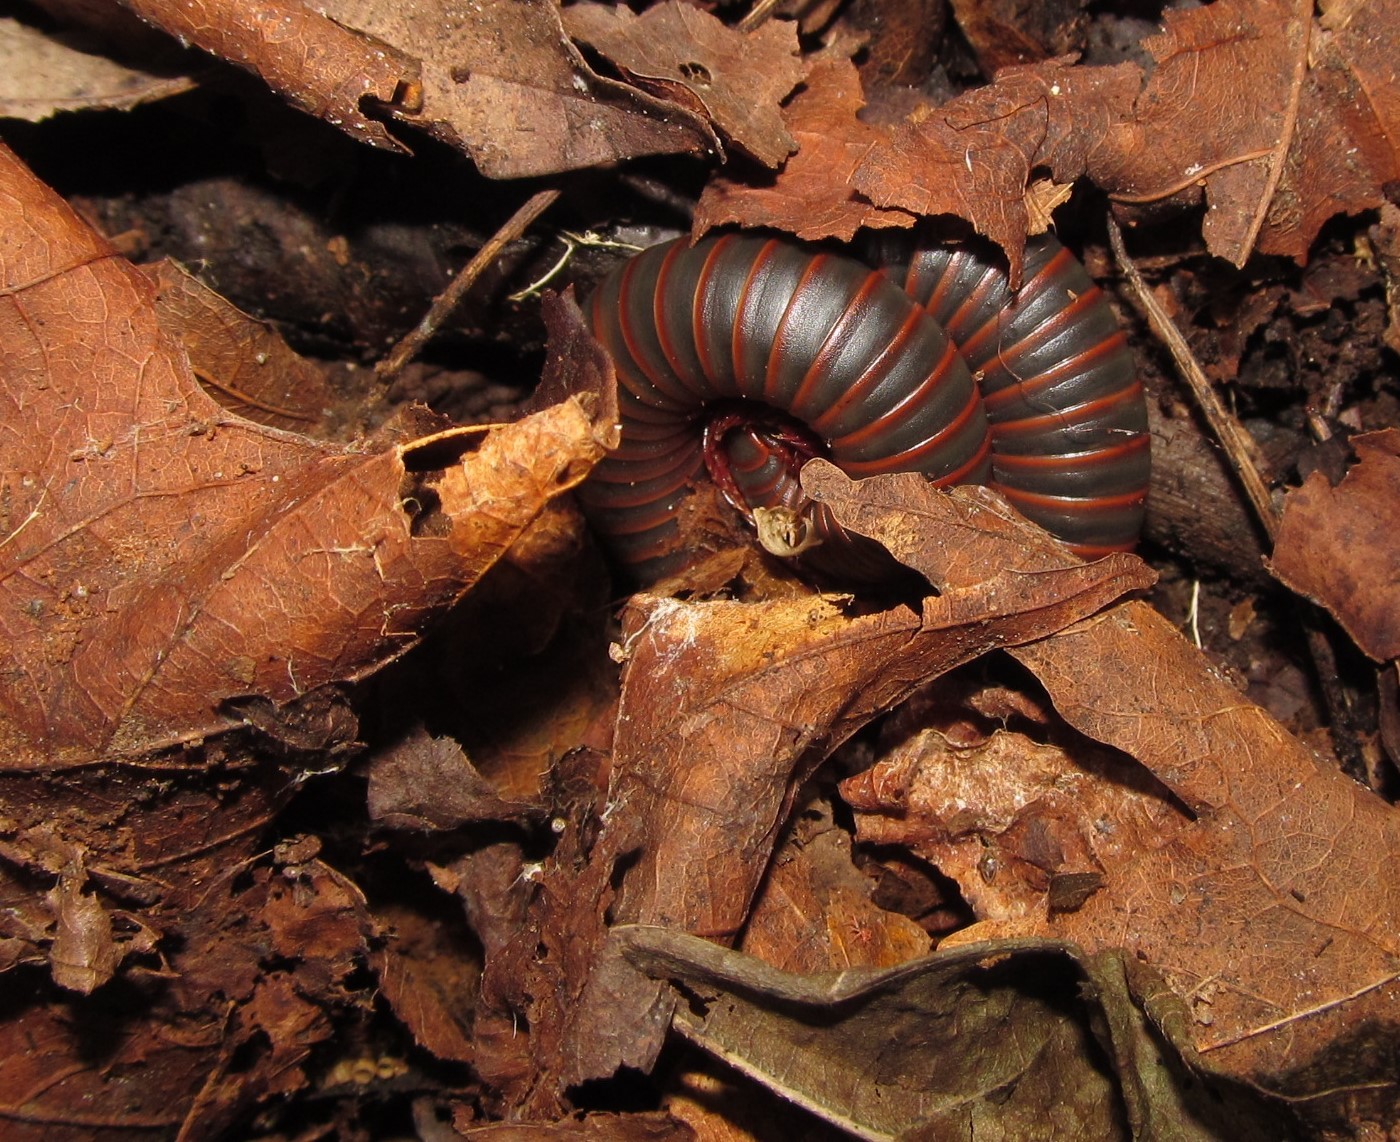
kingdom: Animalia
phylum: Arthropoda
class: Diplopoda
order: Spirobolida
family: Spirobolidae
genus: Narceus
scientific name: Narceus
